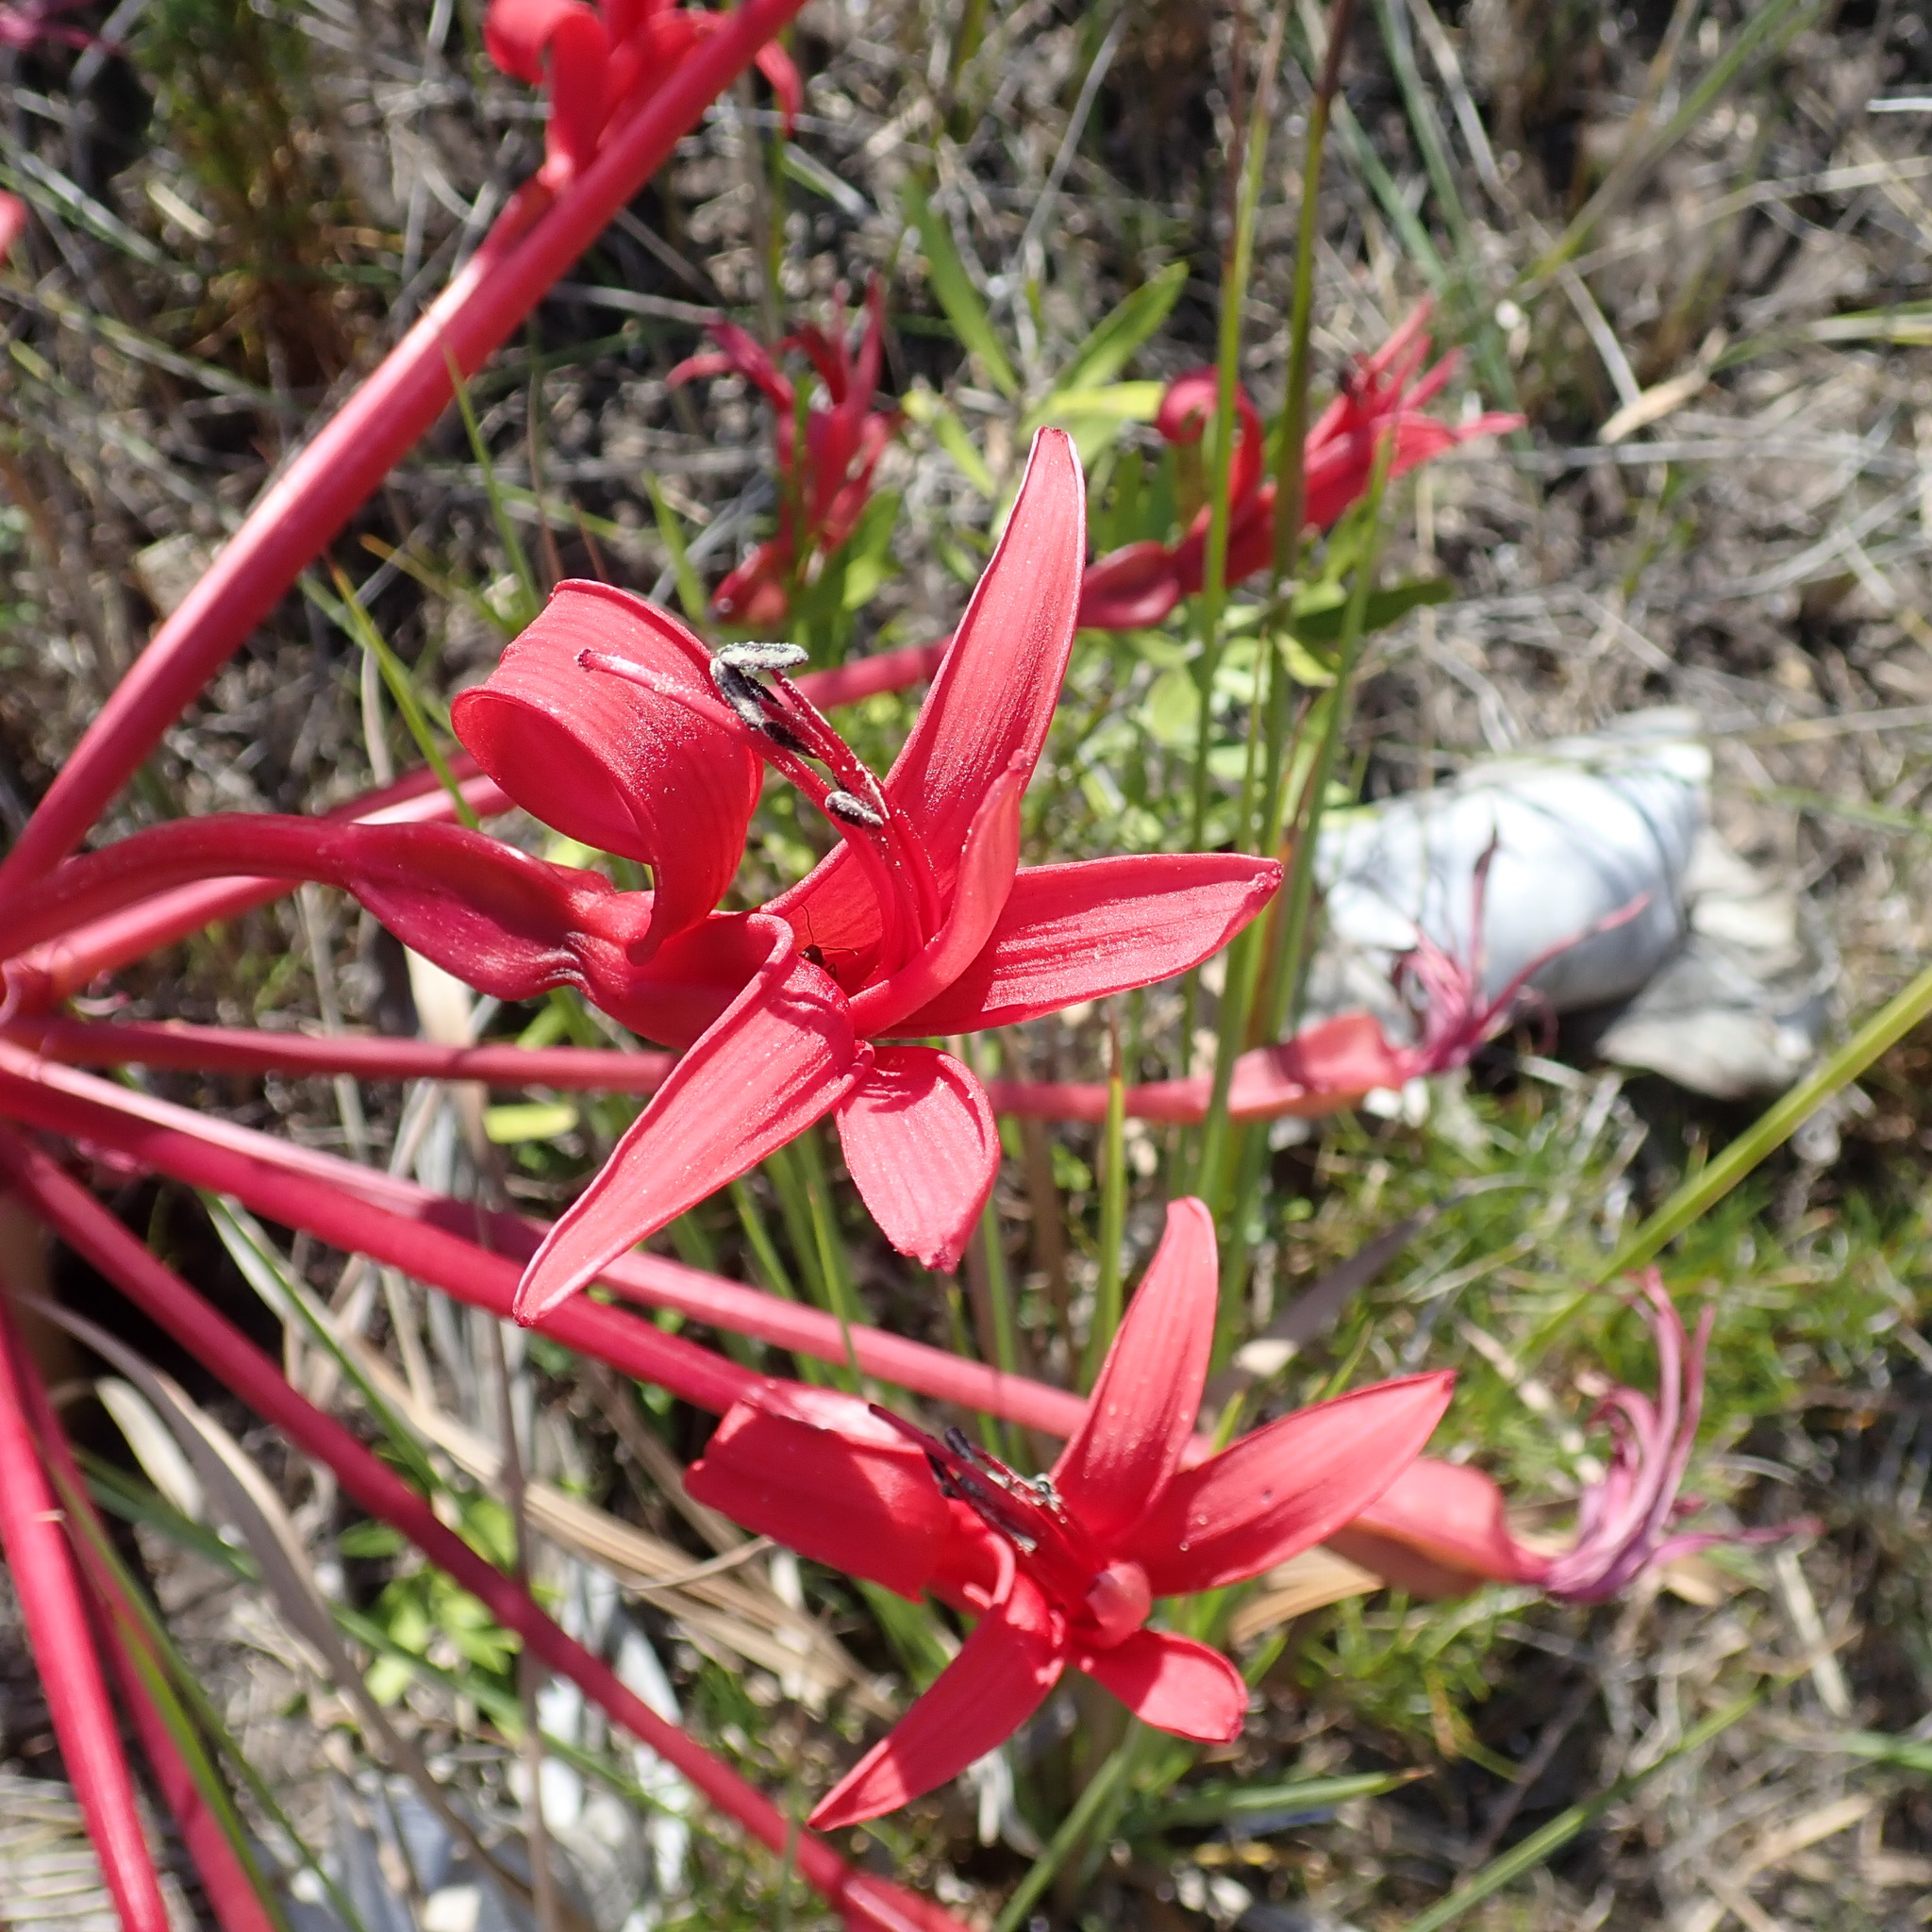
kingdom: Plantae
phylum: Tracheophyta
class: Liliopsida
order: Asparagales
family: Amaryllidaceae
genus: Brunsvigia
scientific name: Brunsvigia orientalis
